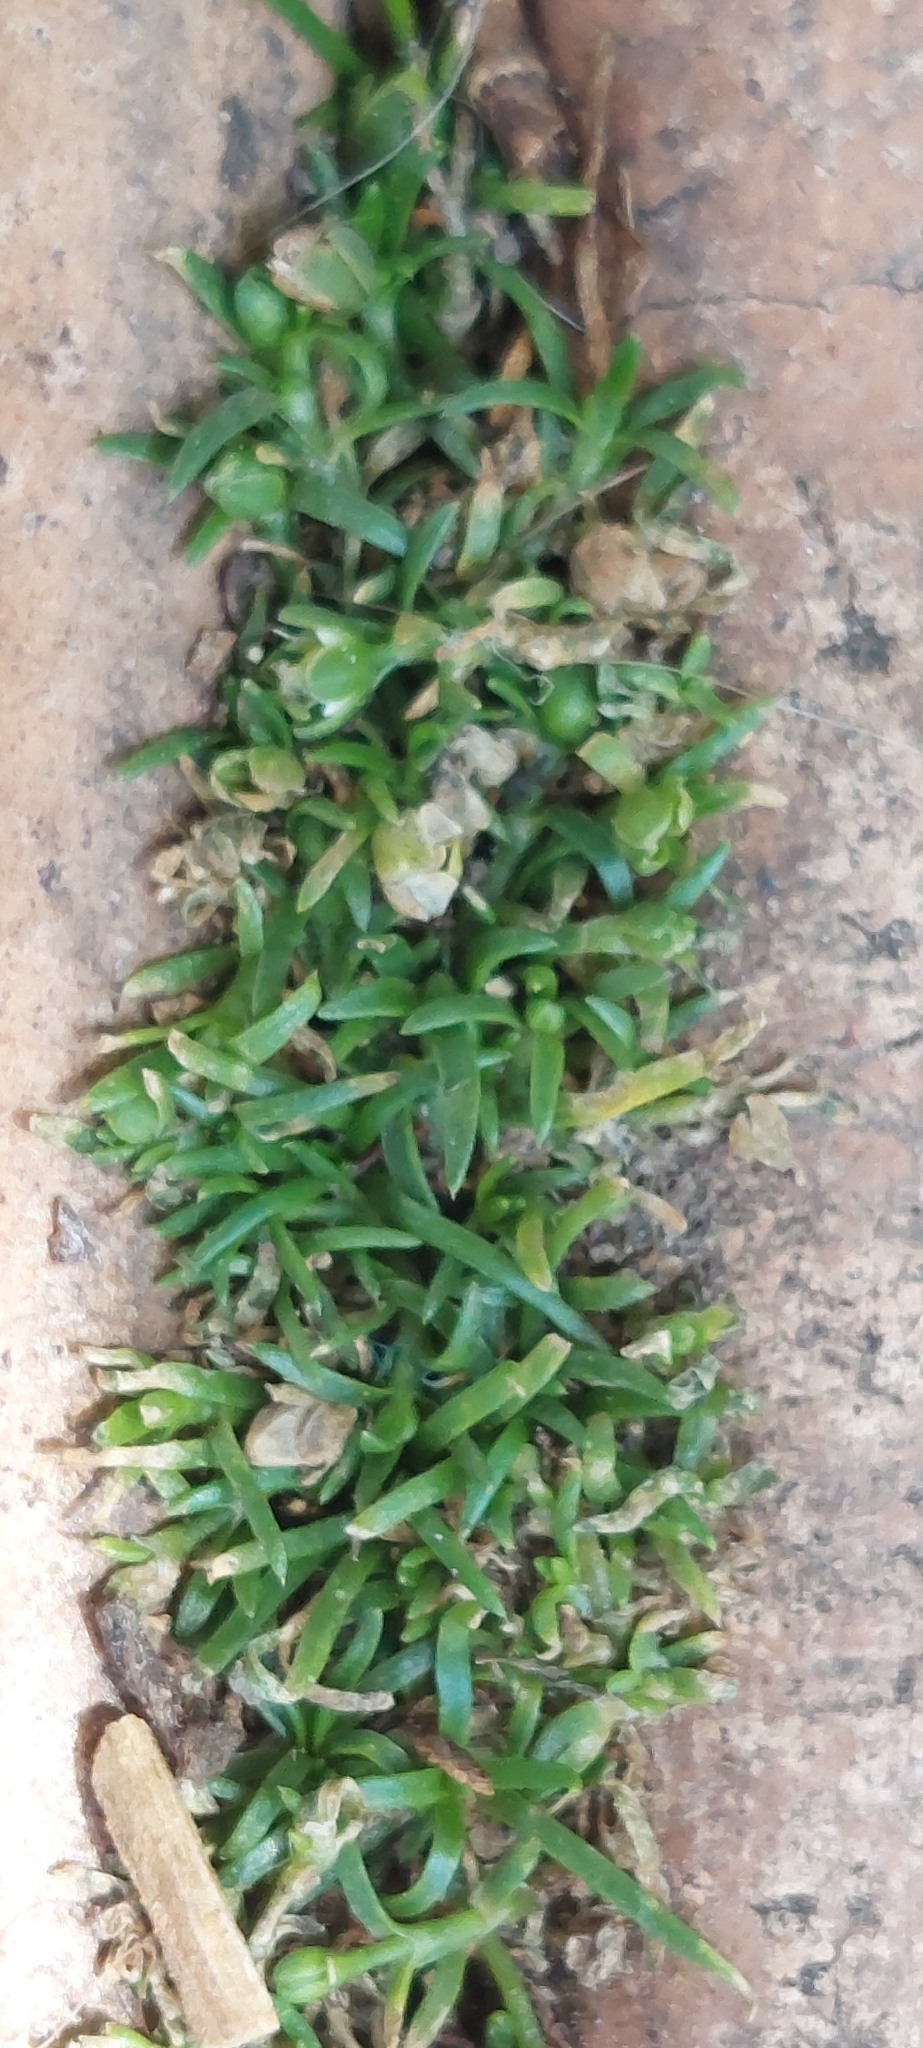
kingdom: Plantae
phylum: Tracheophyta
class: Magnoliopsida
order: Caryophyllales
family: Caryophyllaceae
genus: Sagina
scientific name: Sagina procumbens
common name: Procumbent pearlwort
